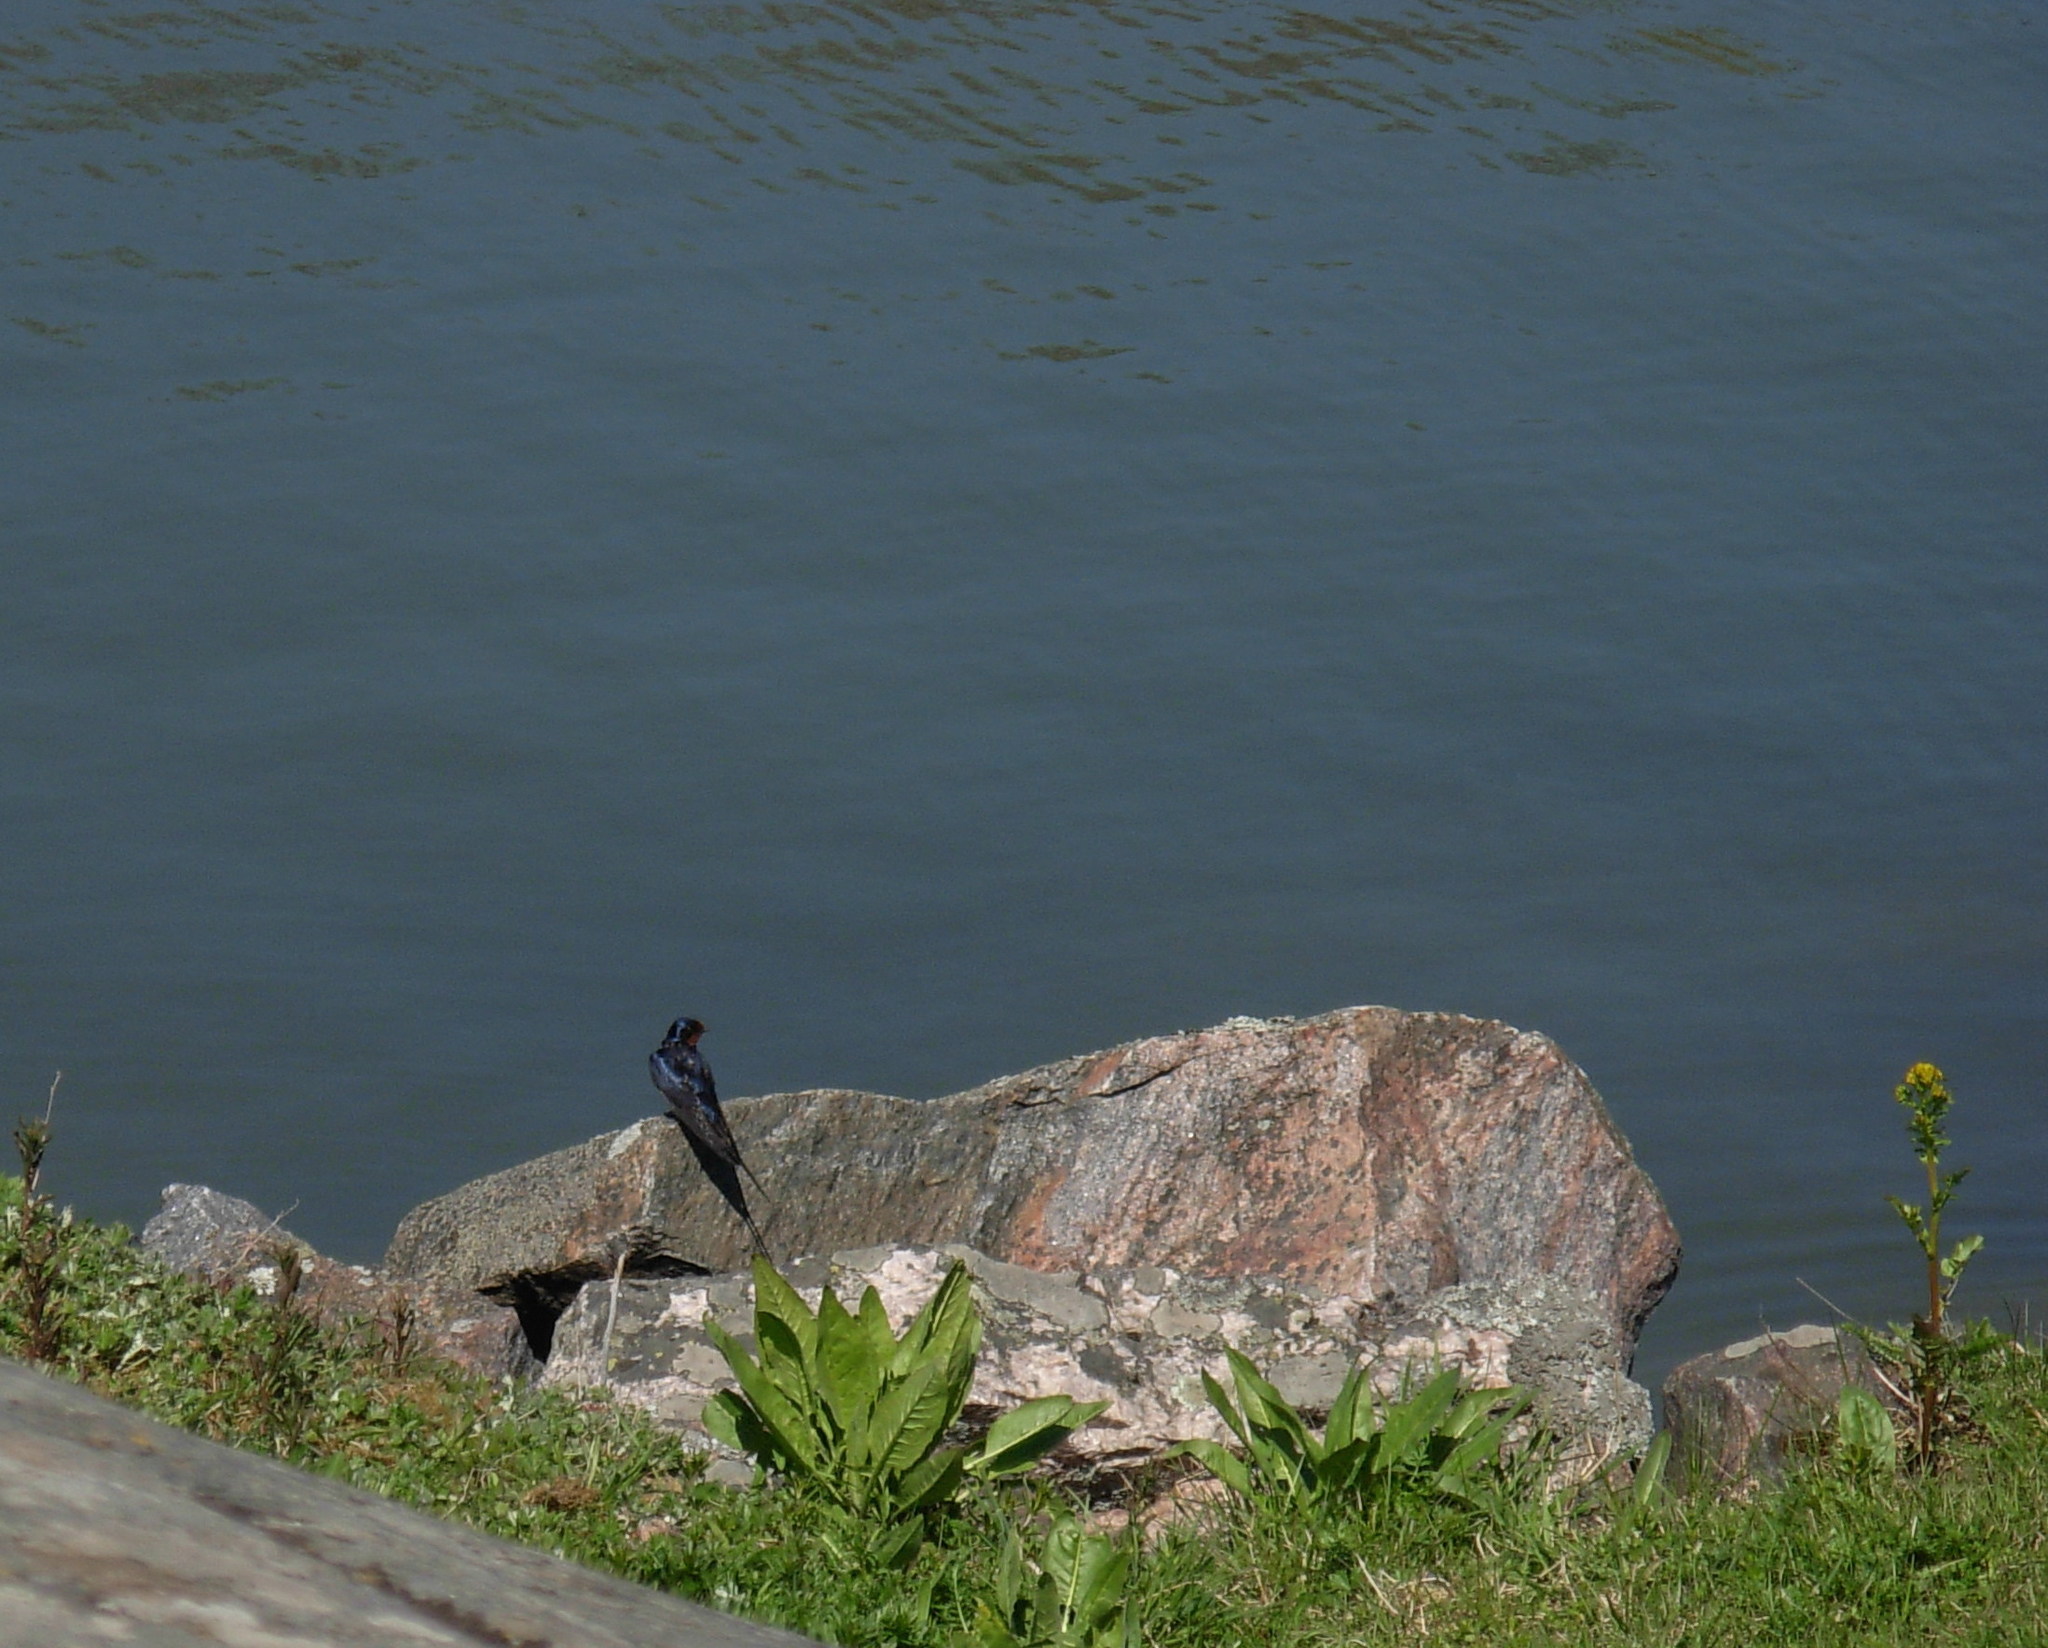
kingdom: Animalia
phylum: Chordata
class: Aves
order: Passeriformes
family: Hirundinidae
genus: Hirundo
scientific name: Hirundo rustica
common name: Barn swallow
